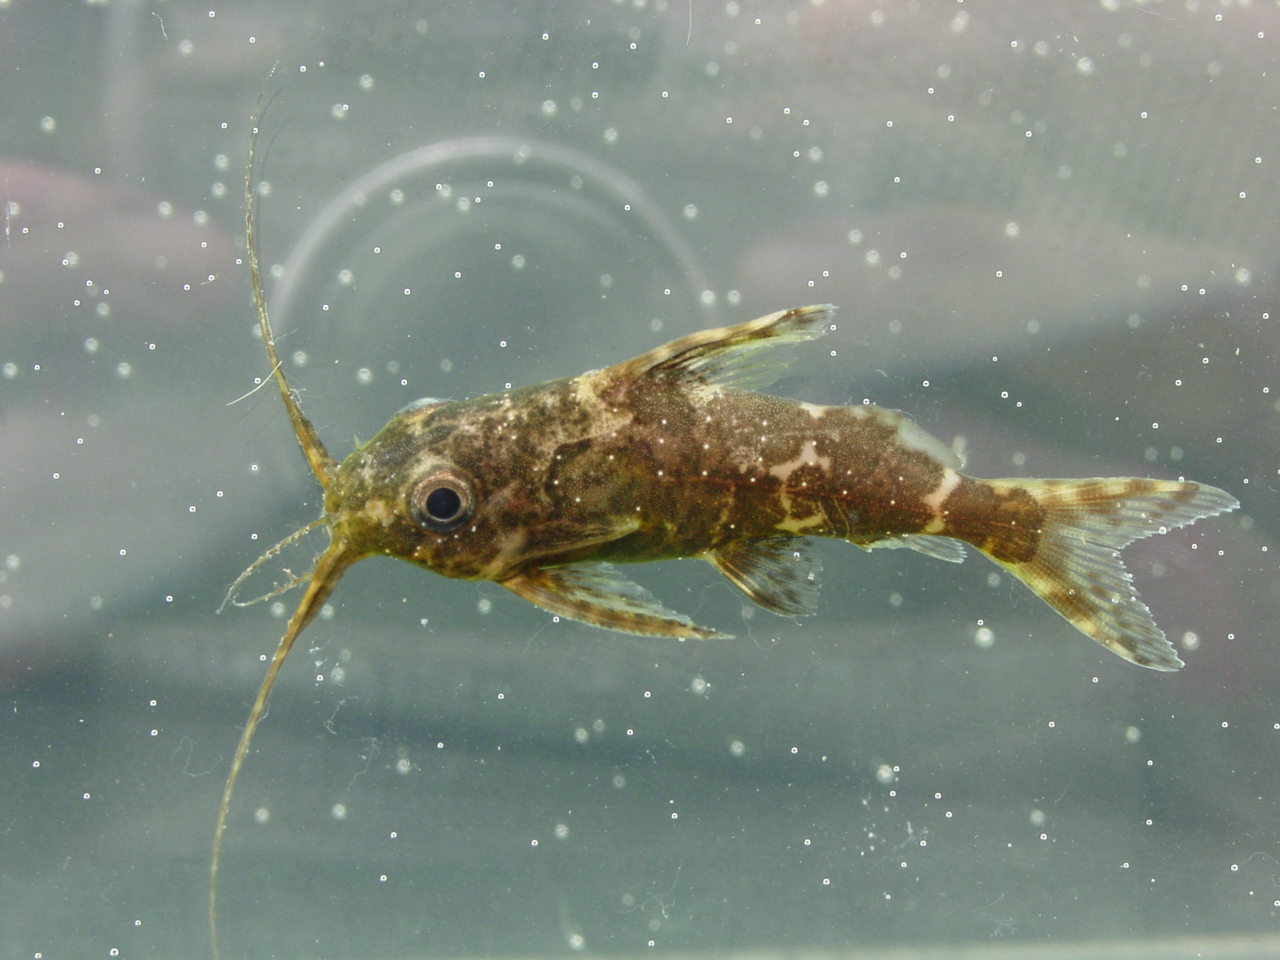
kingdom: Animalia
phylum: Chordata
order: Siluriformes
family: Mochokidae
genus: Synodontis
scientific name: Synodontis nigriventris
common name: Back-swimming congo catfish
